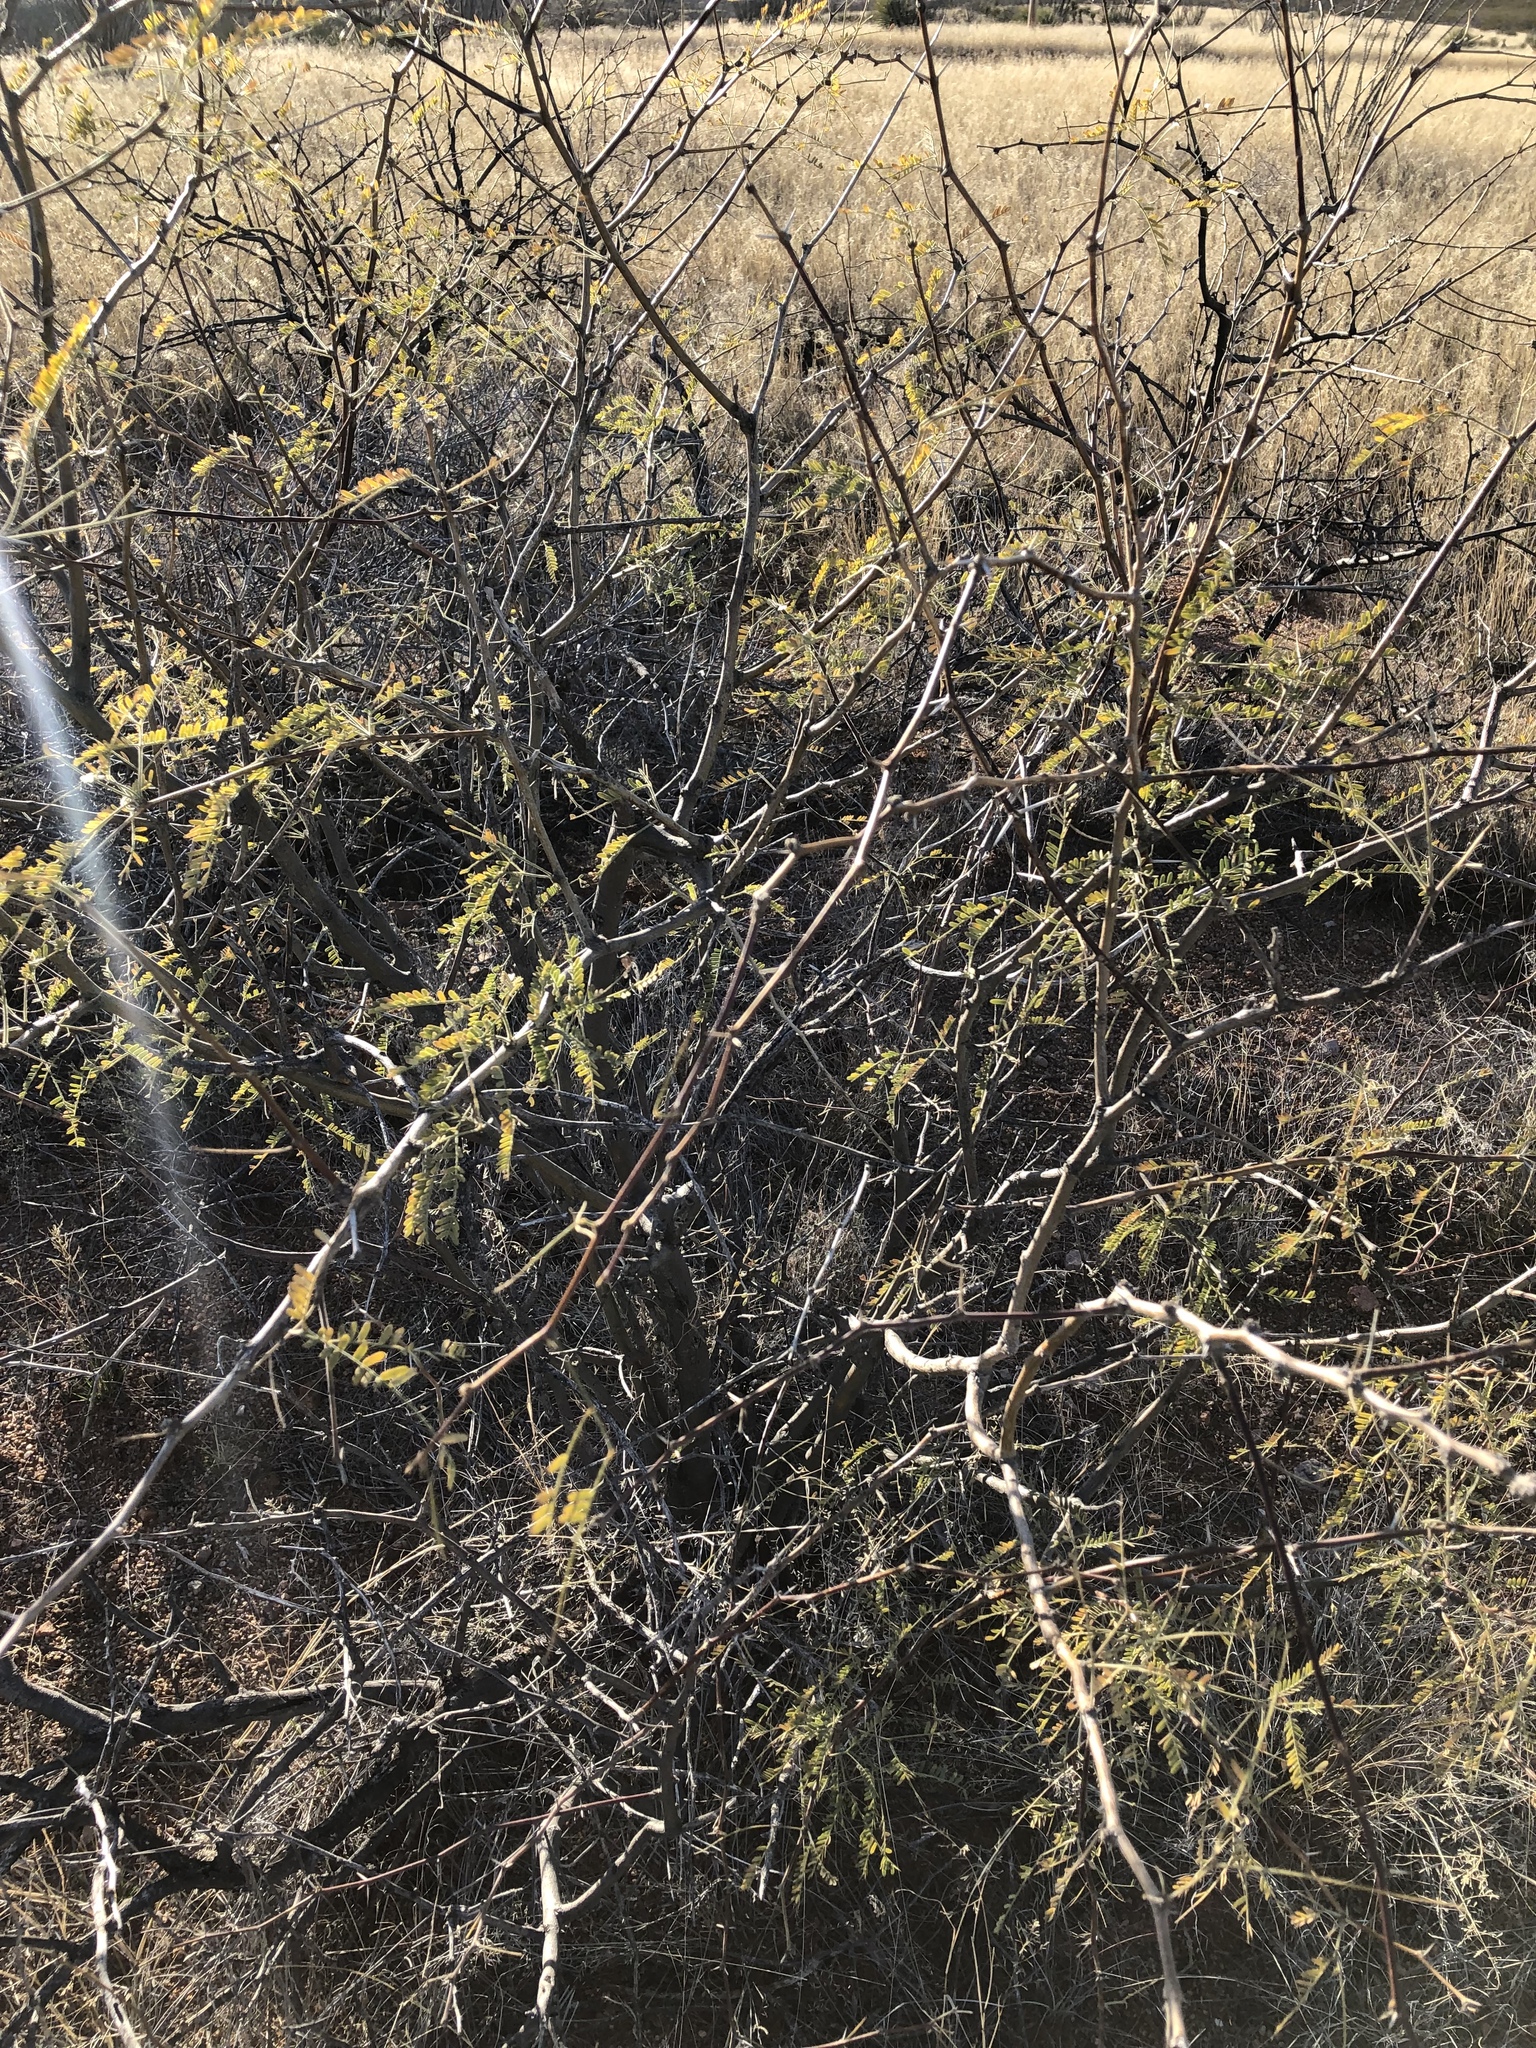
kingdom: Plantae
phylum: Tracheophyta
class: Magnoliopsida
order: Fabales
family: Fabaceae
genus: Prosopis
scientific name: Prosopis velutina
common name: Velvet mesquite
